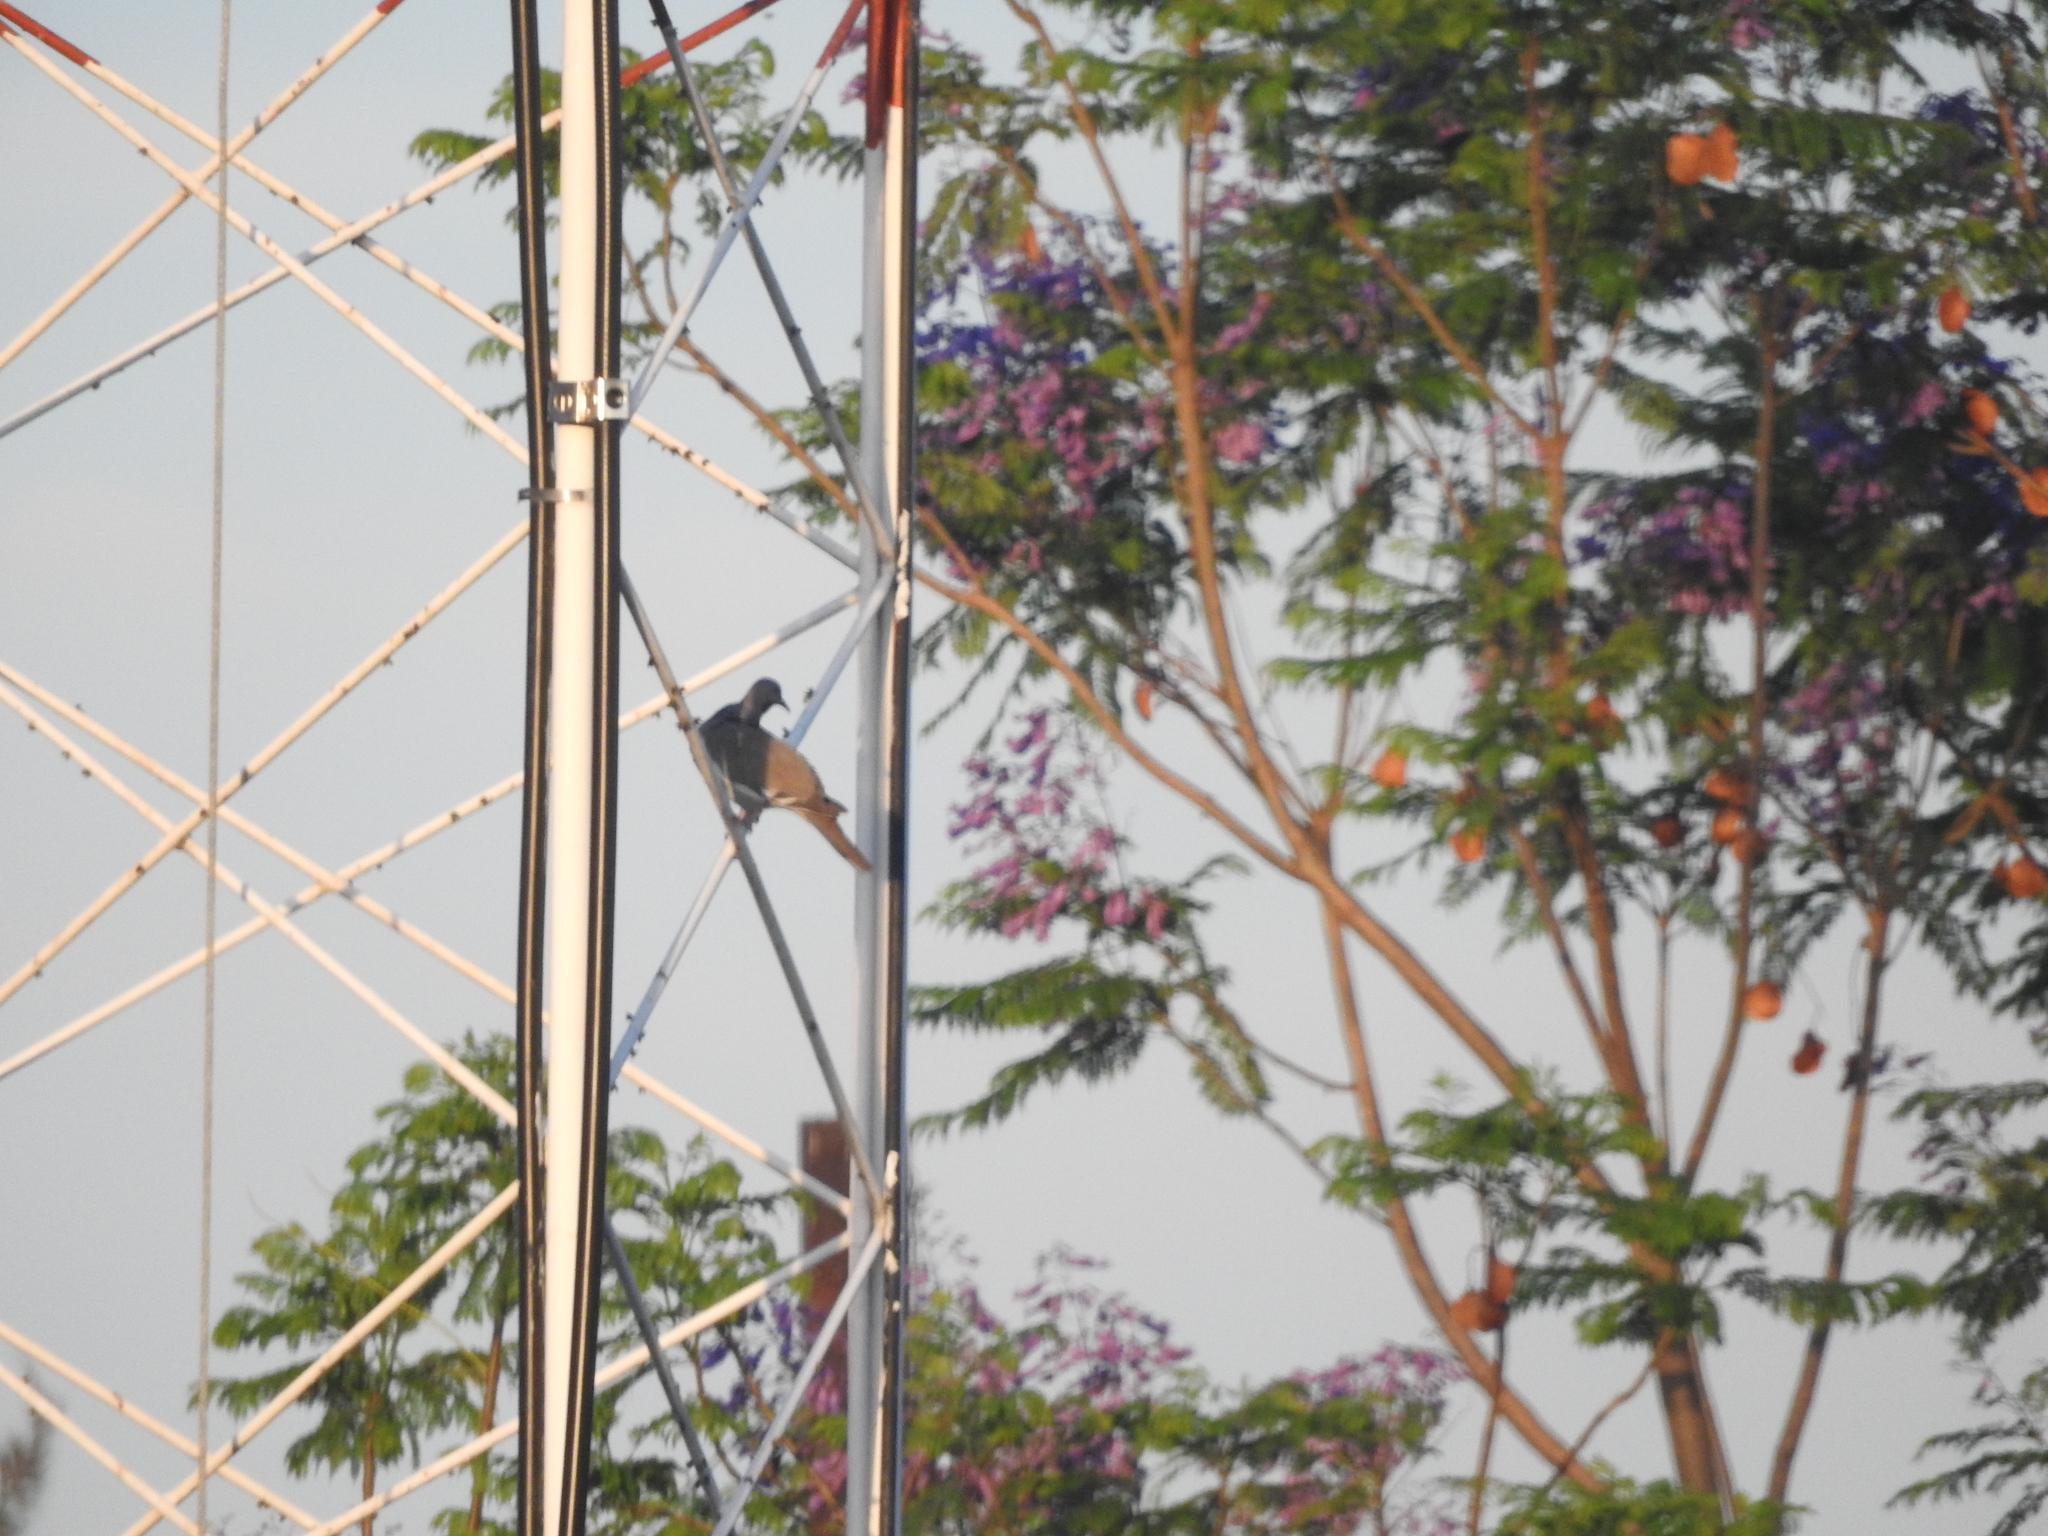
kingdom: Animalia
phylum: Chordata
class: Aves
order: Columbiformes
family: Columbidae
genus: Zenaida
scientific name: Zenaida asiatica
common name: White-winged dove
